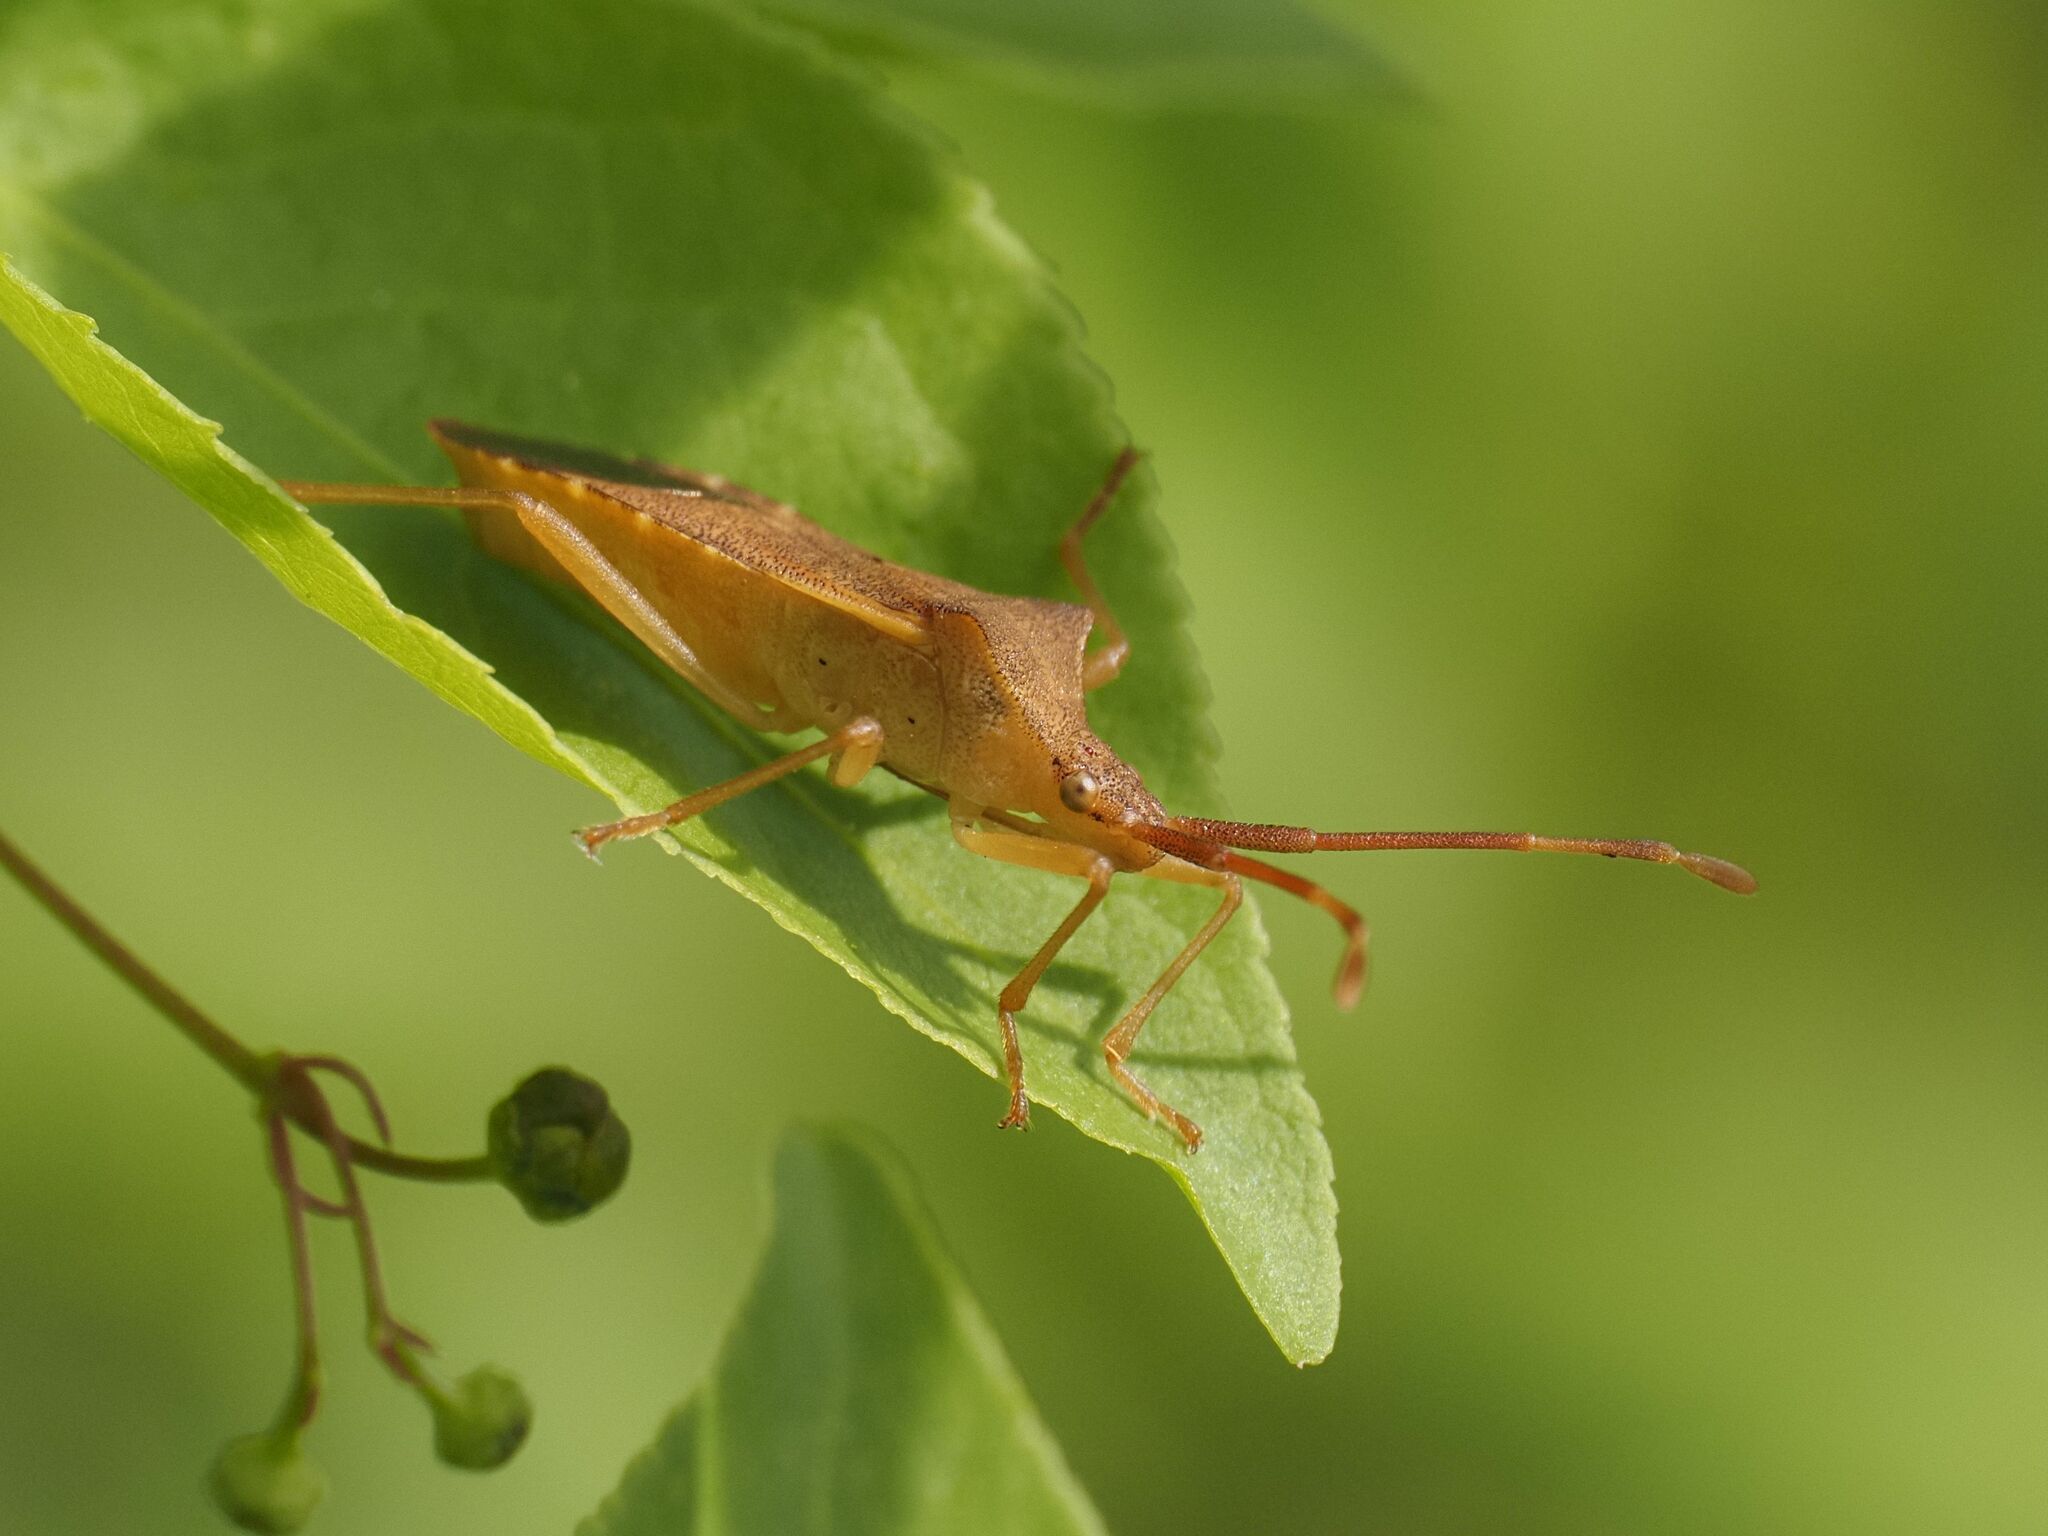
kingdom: Animalia
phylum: Arthropoda
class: Insecta
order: Hemiptera
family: Coreidae
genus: Gonocerus
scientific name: Gonocerus acuteangulatus
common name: Box bug
